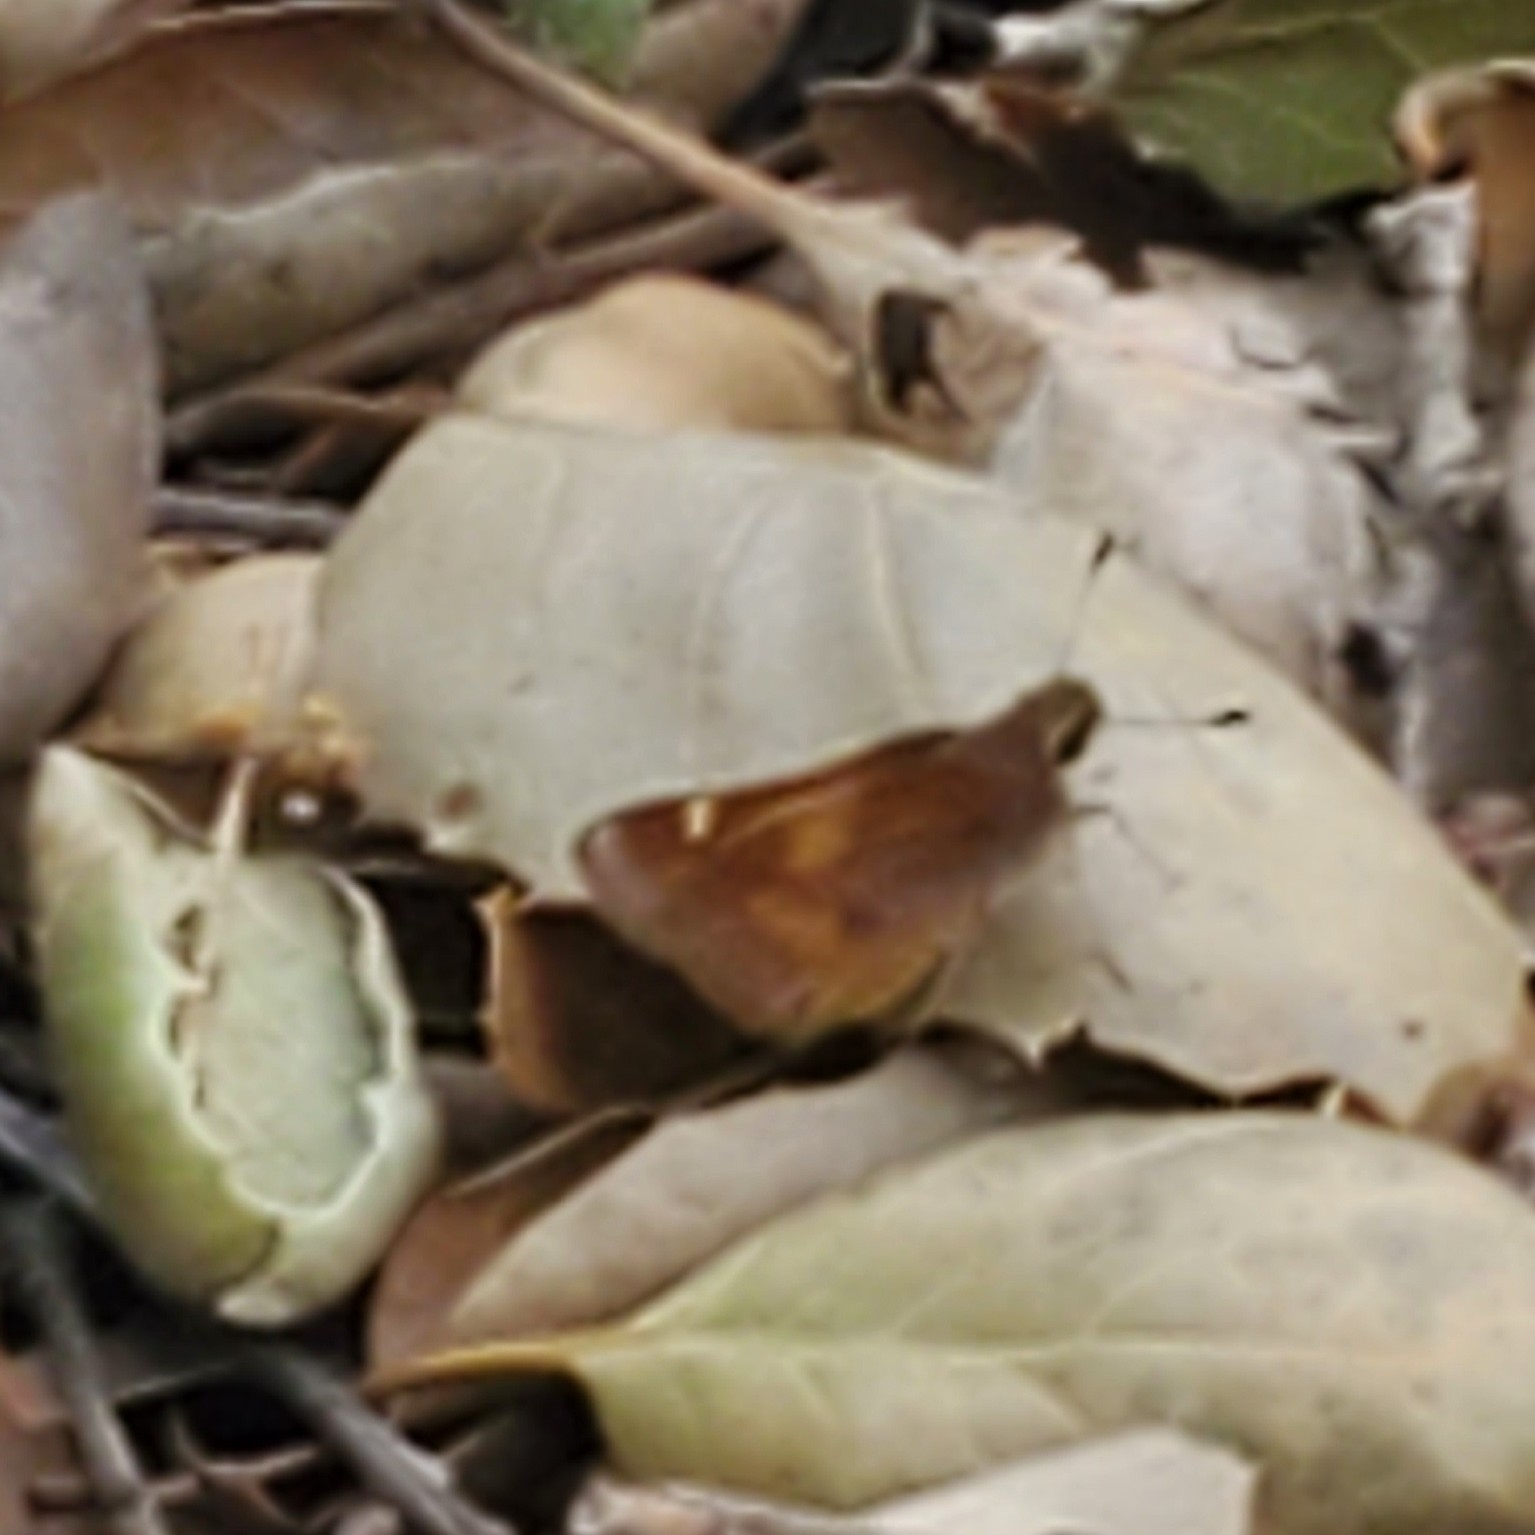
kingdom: Animalia
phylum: Arthropoda
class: Insecta
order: Lepidoptera
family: Hesperiidae
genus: Lon
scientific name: Lon melane
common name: Umber skipper
